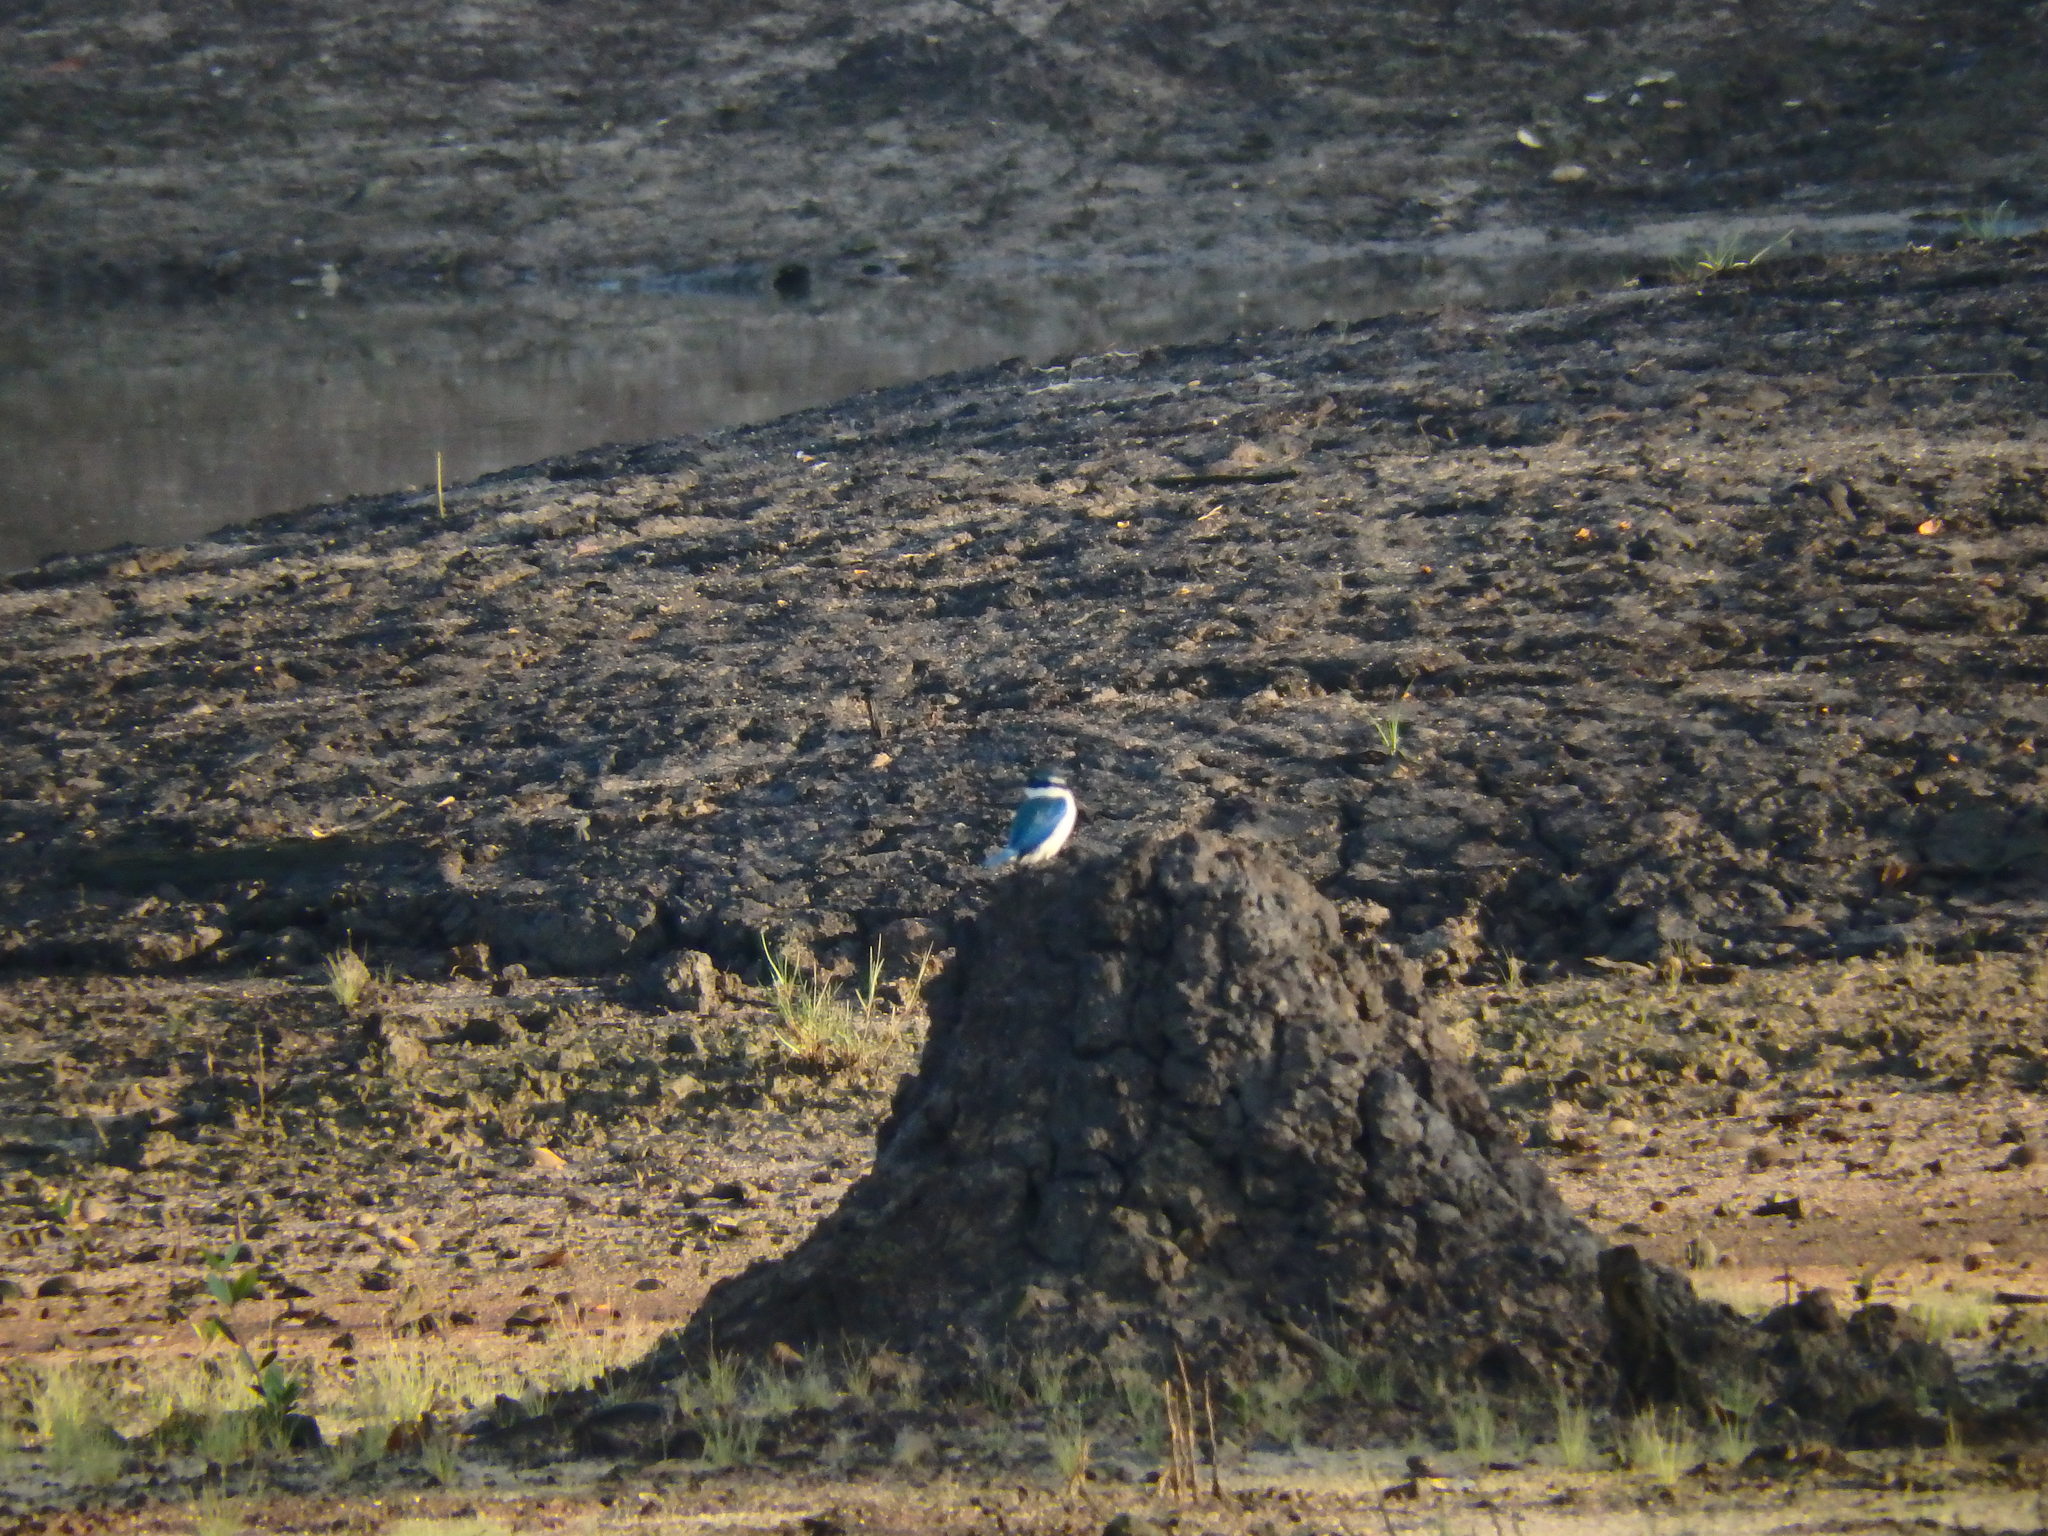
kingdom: Animalia
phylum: Chordata
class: Aves
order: Coraciiformes
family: Alcedinidae
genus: Todiramphus
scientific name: Todiramphus chloris
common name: Collared kingfisher
